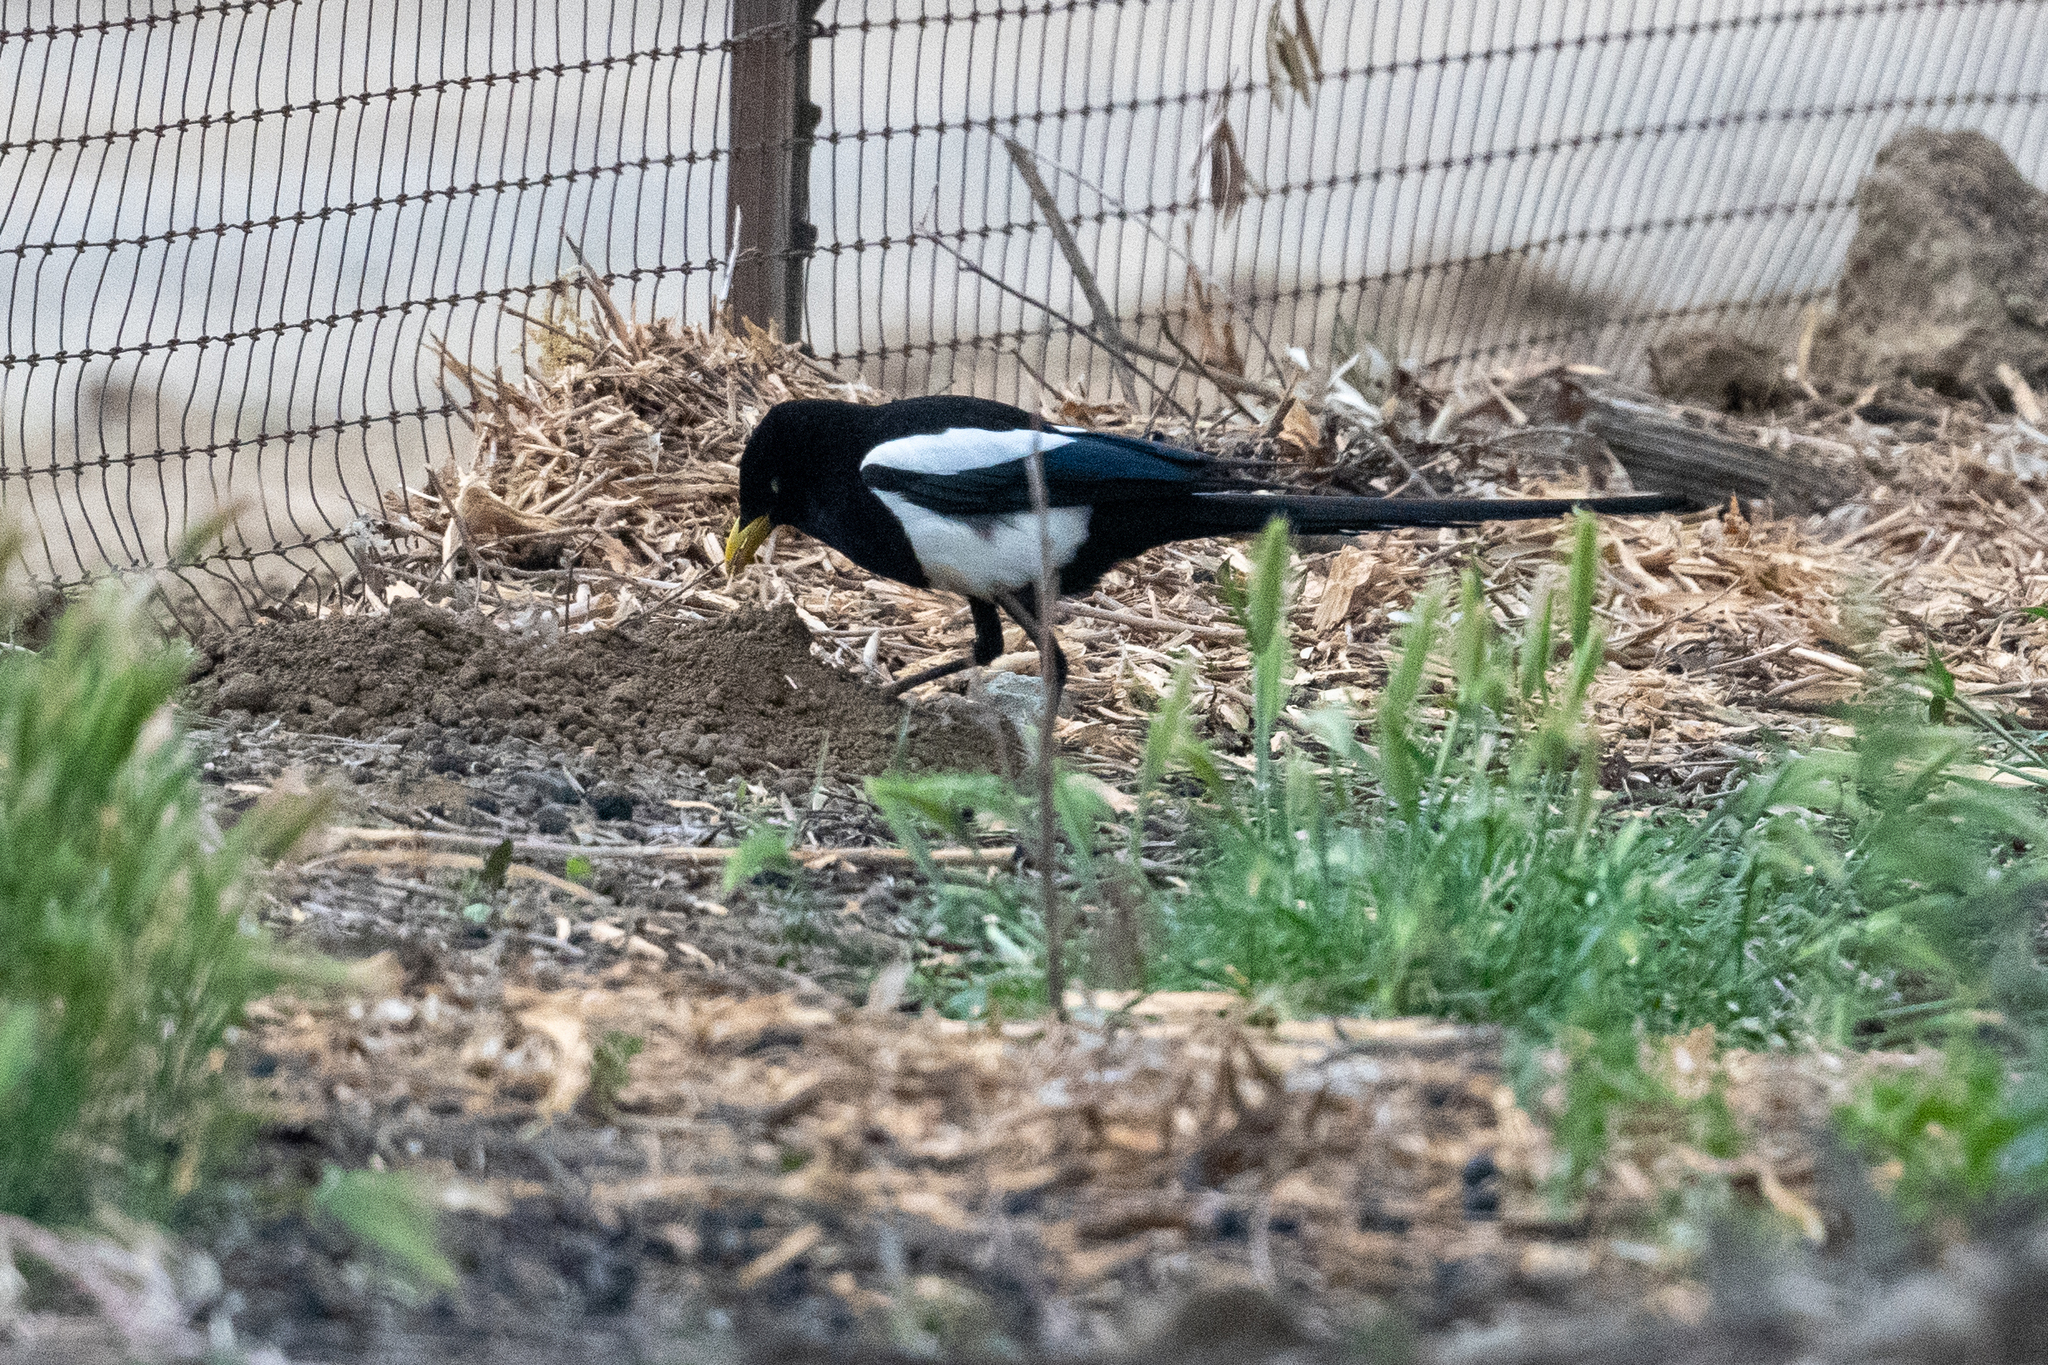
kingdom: Animalia
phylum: Chordata
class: Aves
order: Passeriformes
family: Corvidae
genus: Pica
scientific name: Pica nuttalli
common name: Yellow-billed magpie
